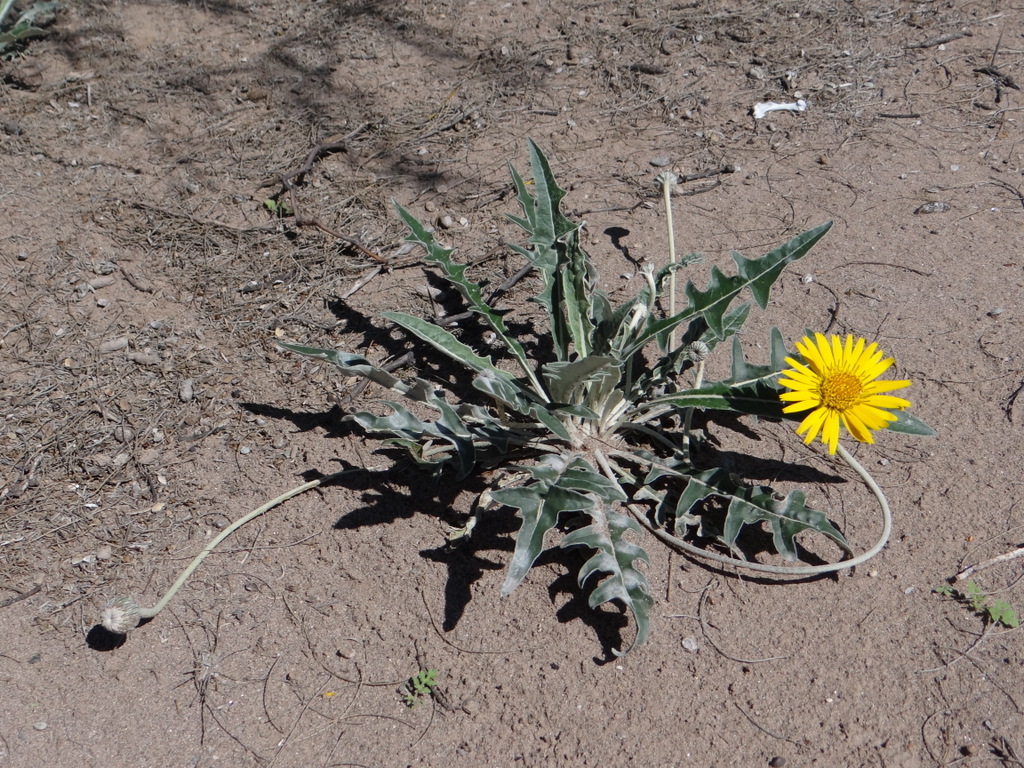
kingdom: Plantae
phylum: Tracheophyta
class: Magnoliopsida
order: Asterales
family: Asteraceae
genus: Trichocline
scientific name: Trichocline sinuata
